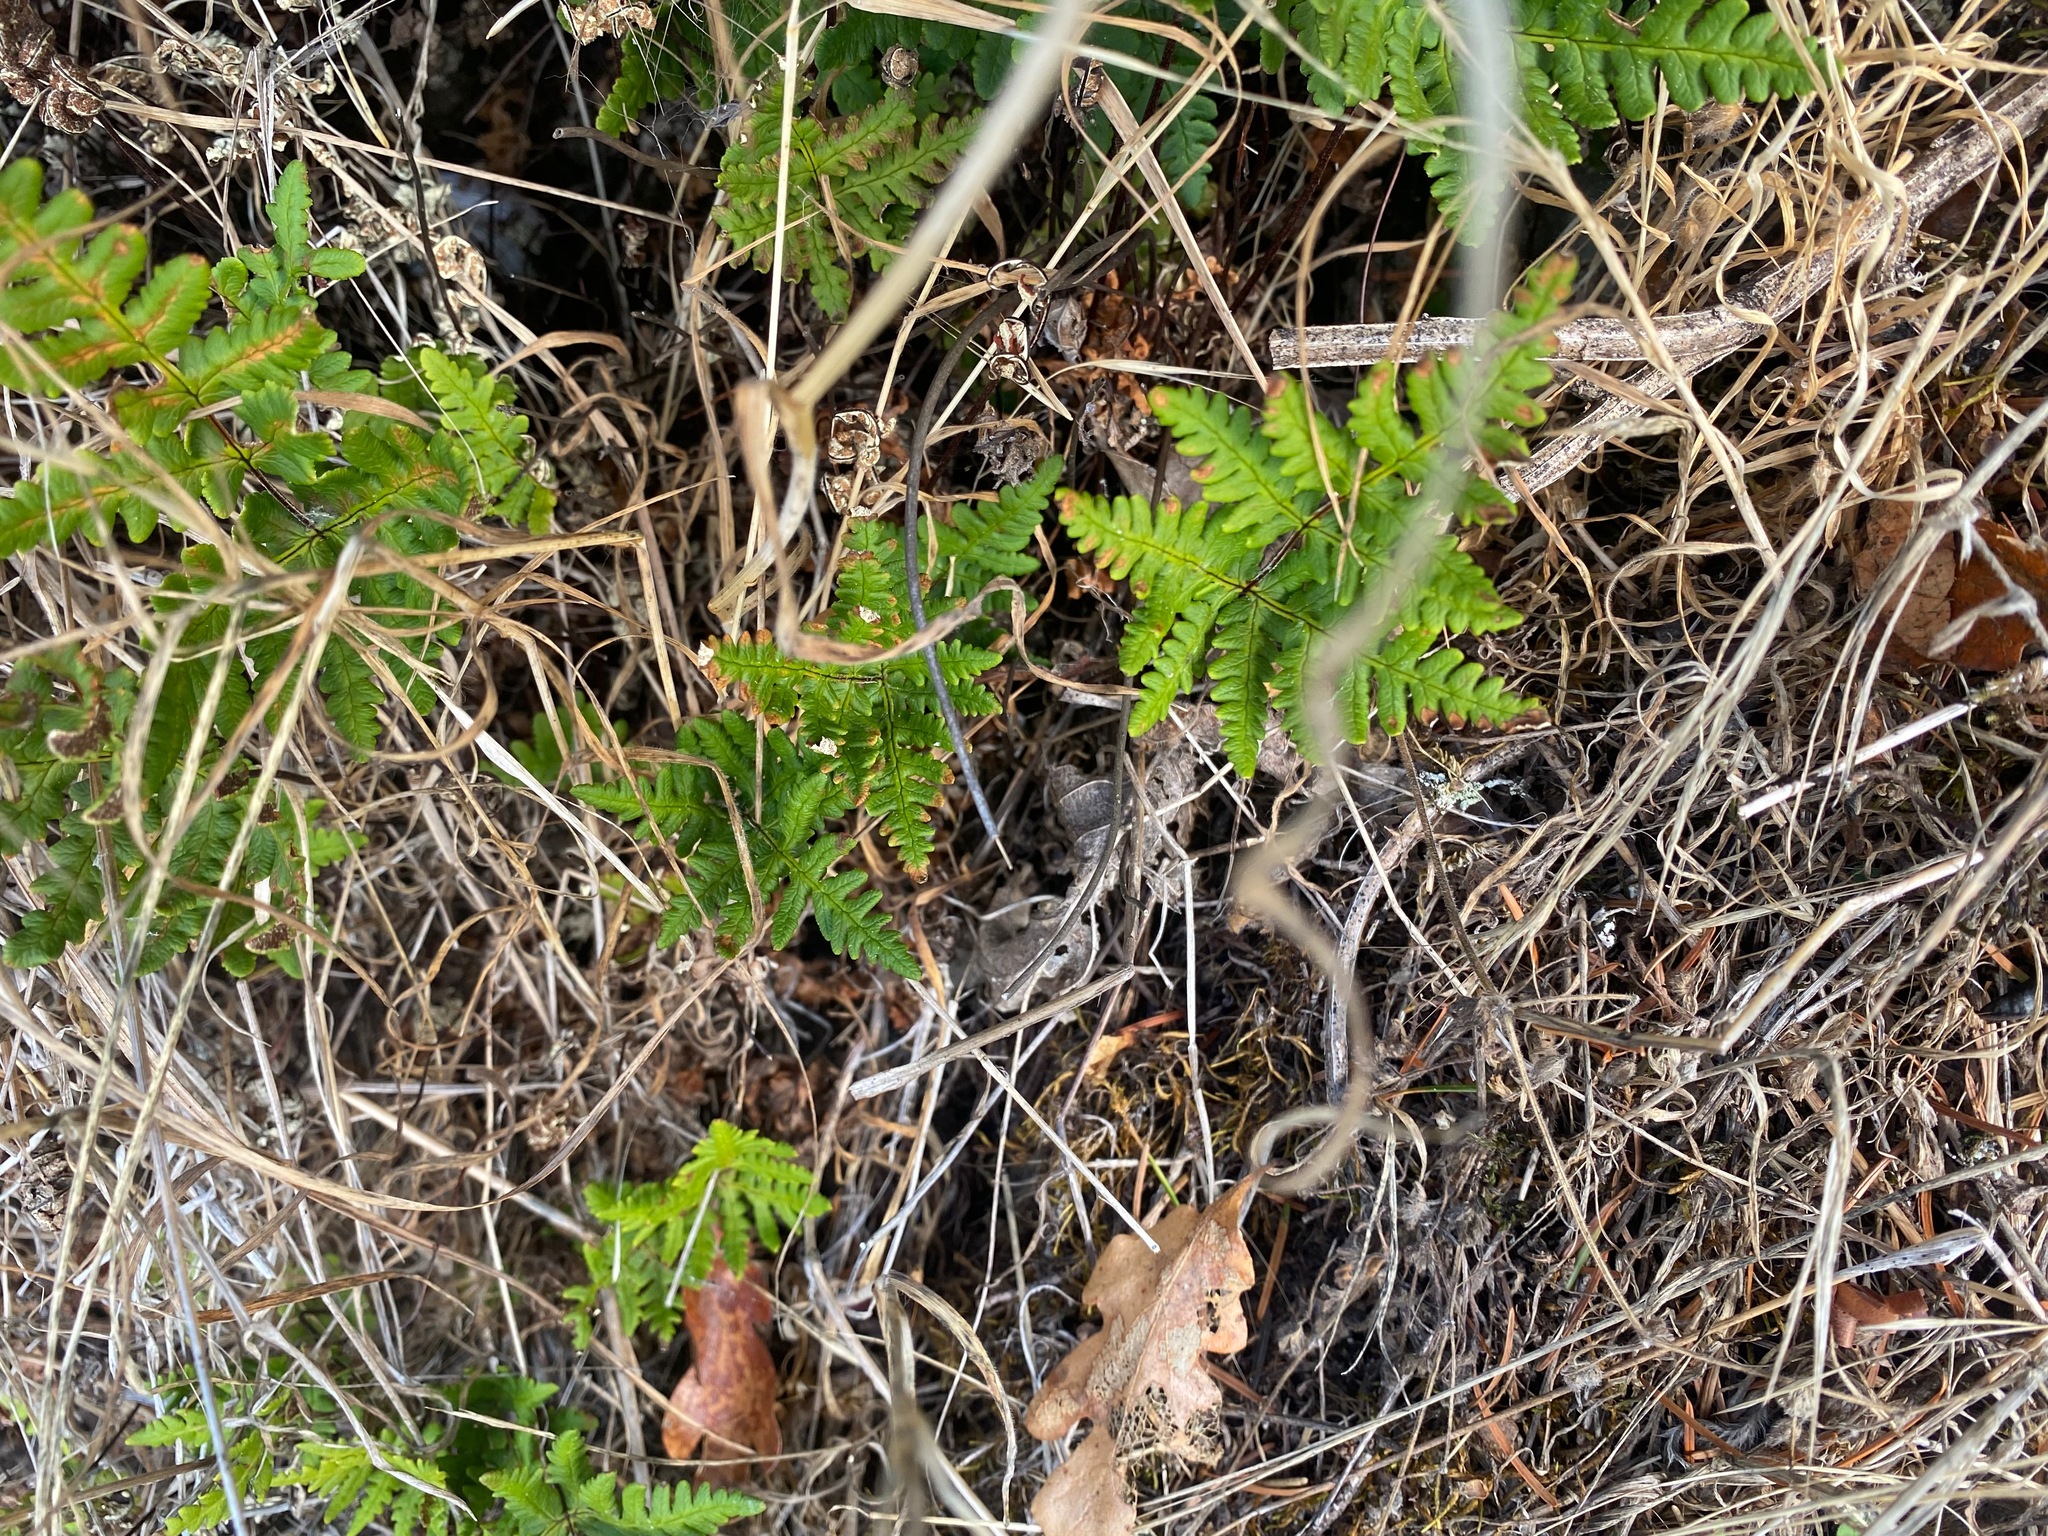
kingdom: Plantae
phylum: Tracheophyta
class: Polypodiopsida
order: Polypodiales
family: Pteridaceae
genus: Pentagramma
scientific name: Pentagramma triangularis
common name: Gold fern
